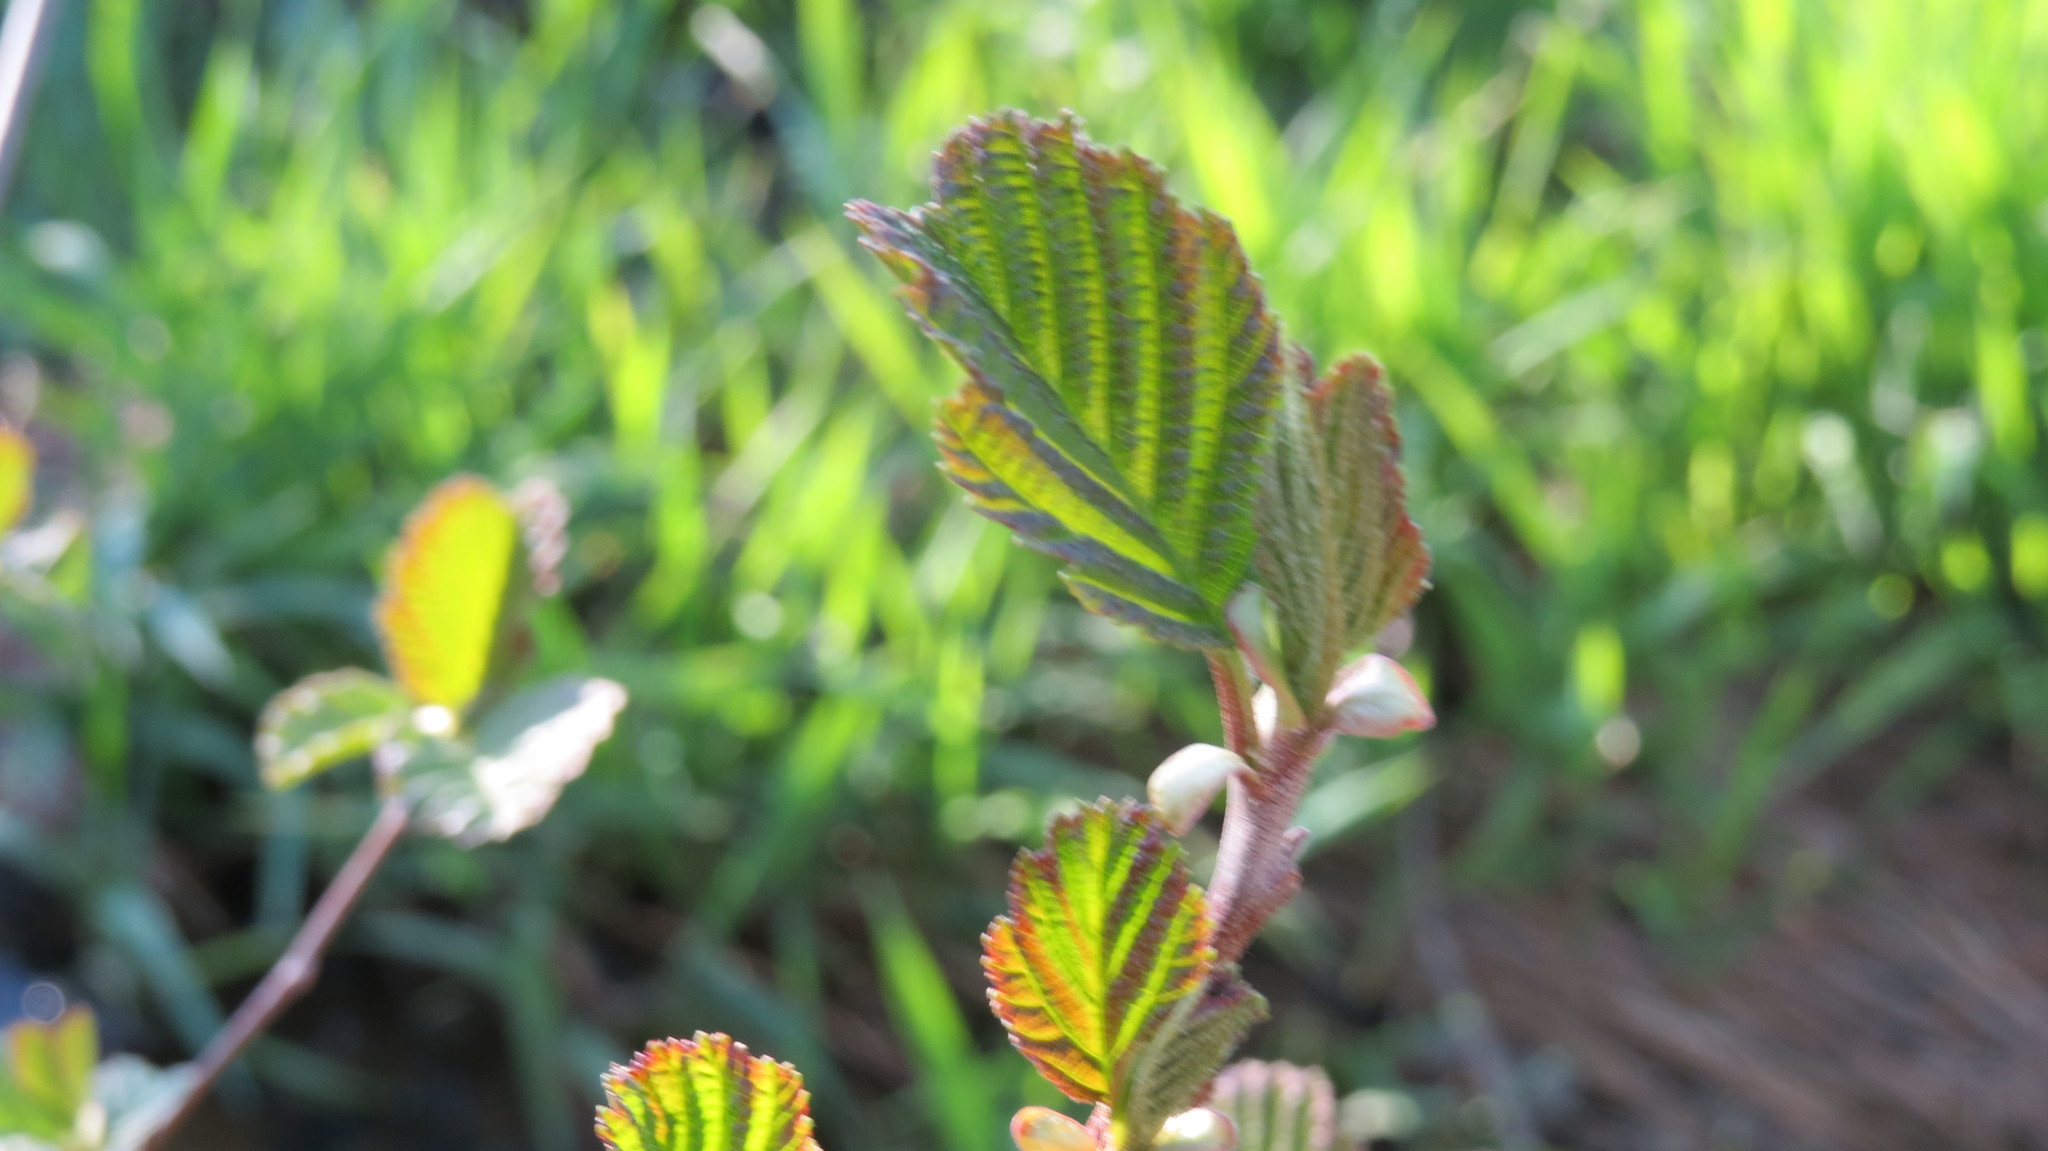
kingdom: Plantae
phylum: Tracheophyta
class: Magnoliopsida
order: Fagales
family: Betulaceae
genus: Alnus
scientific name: Alnus glutinosa
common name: Black alder
